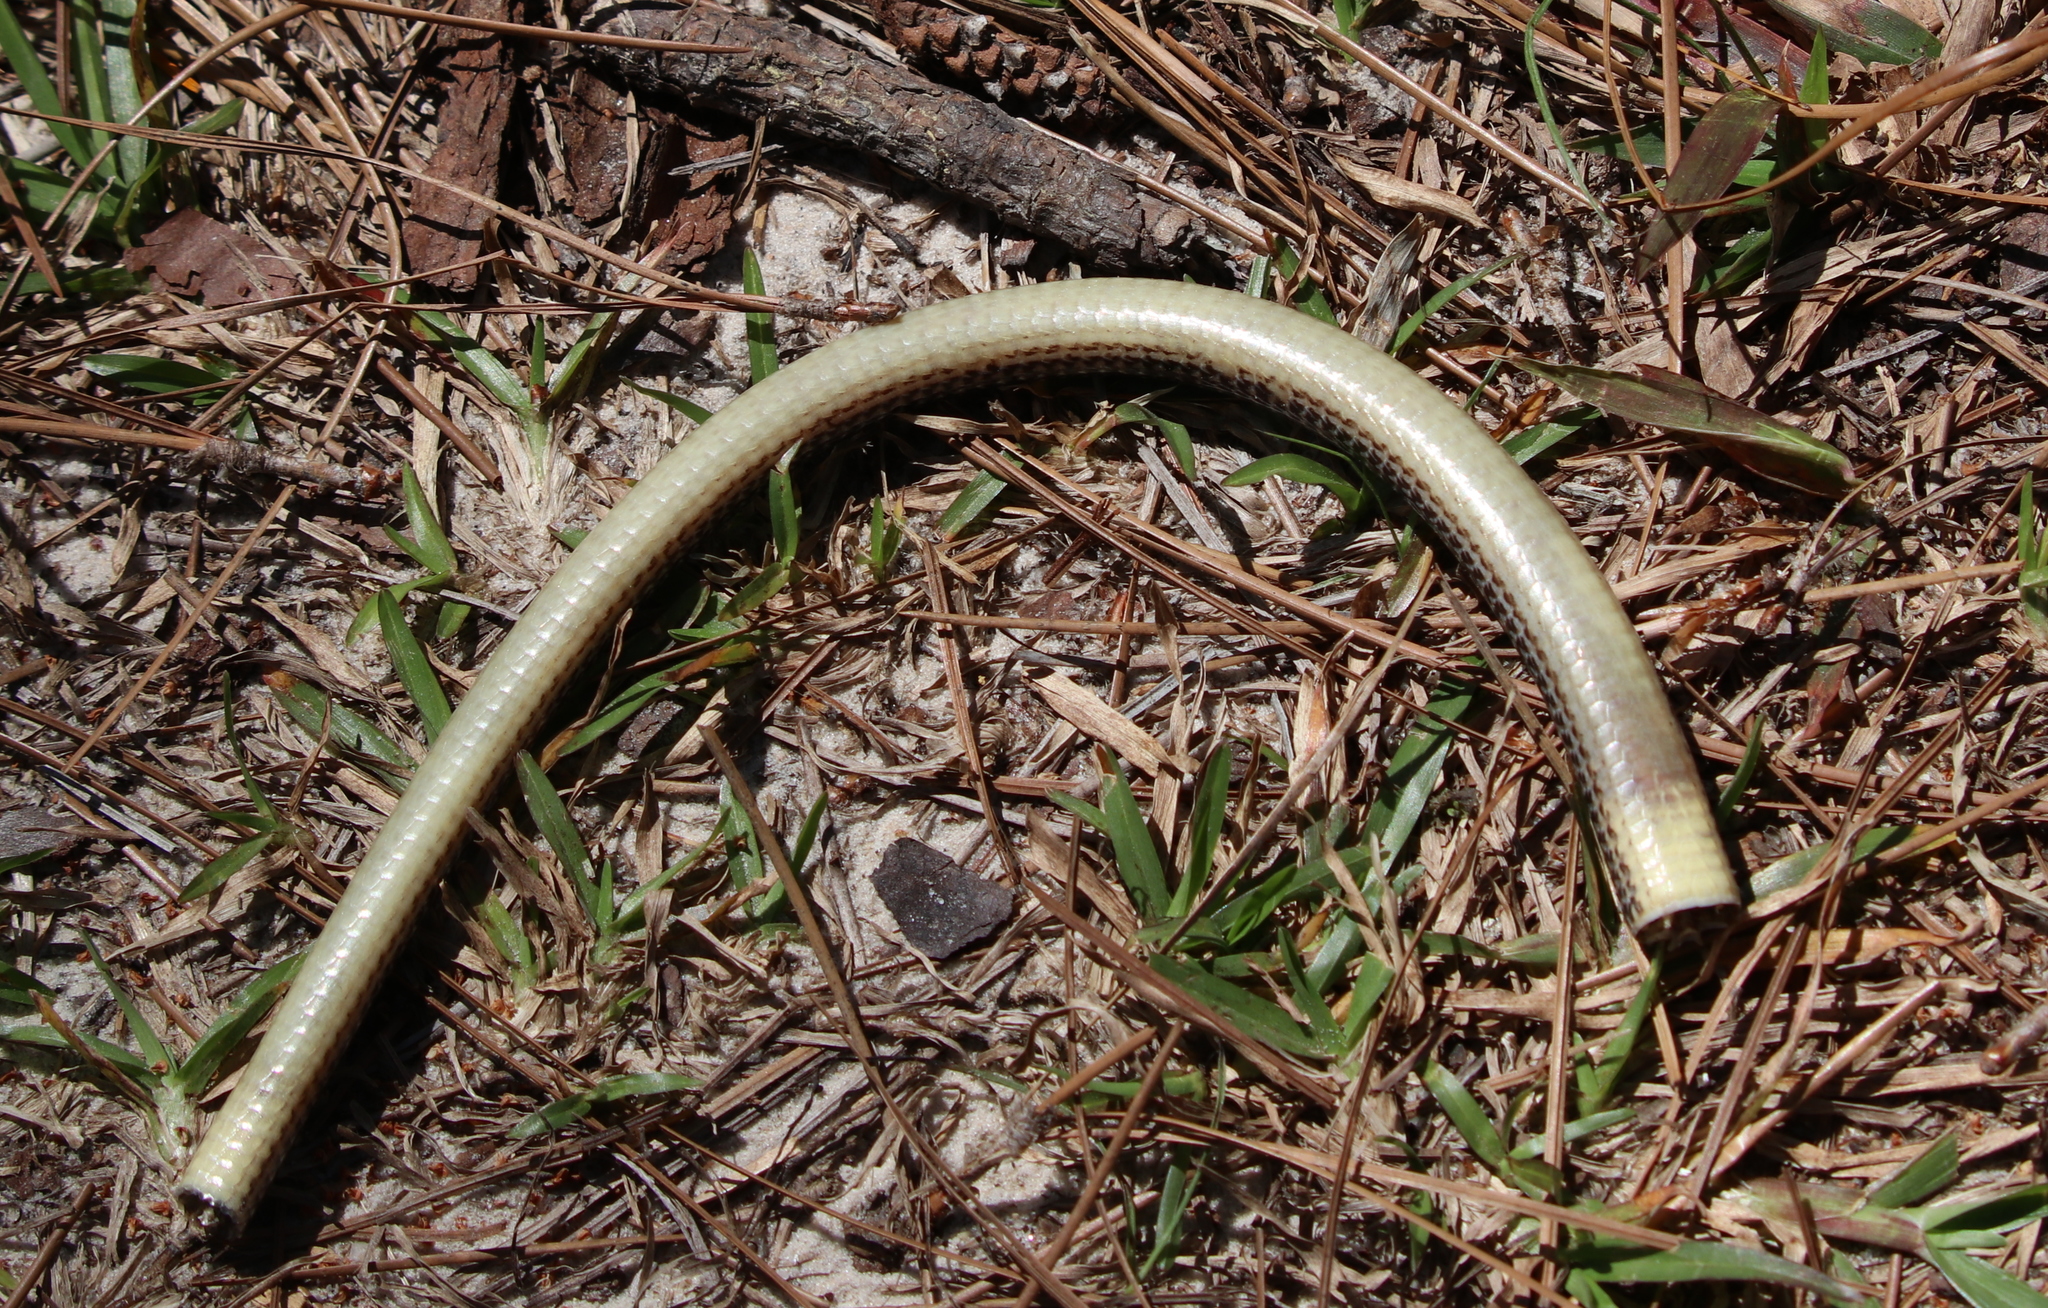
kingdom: Animalia
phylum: Chordata
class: Squamata
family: Anguidae
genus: Ophisaurus
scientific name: Ophisaurus attenuatus
